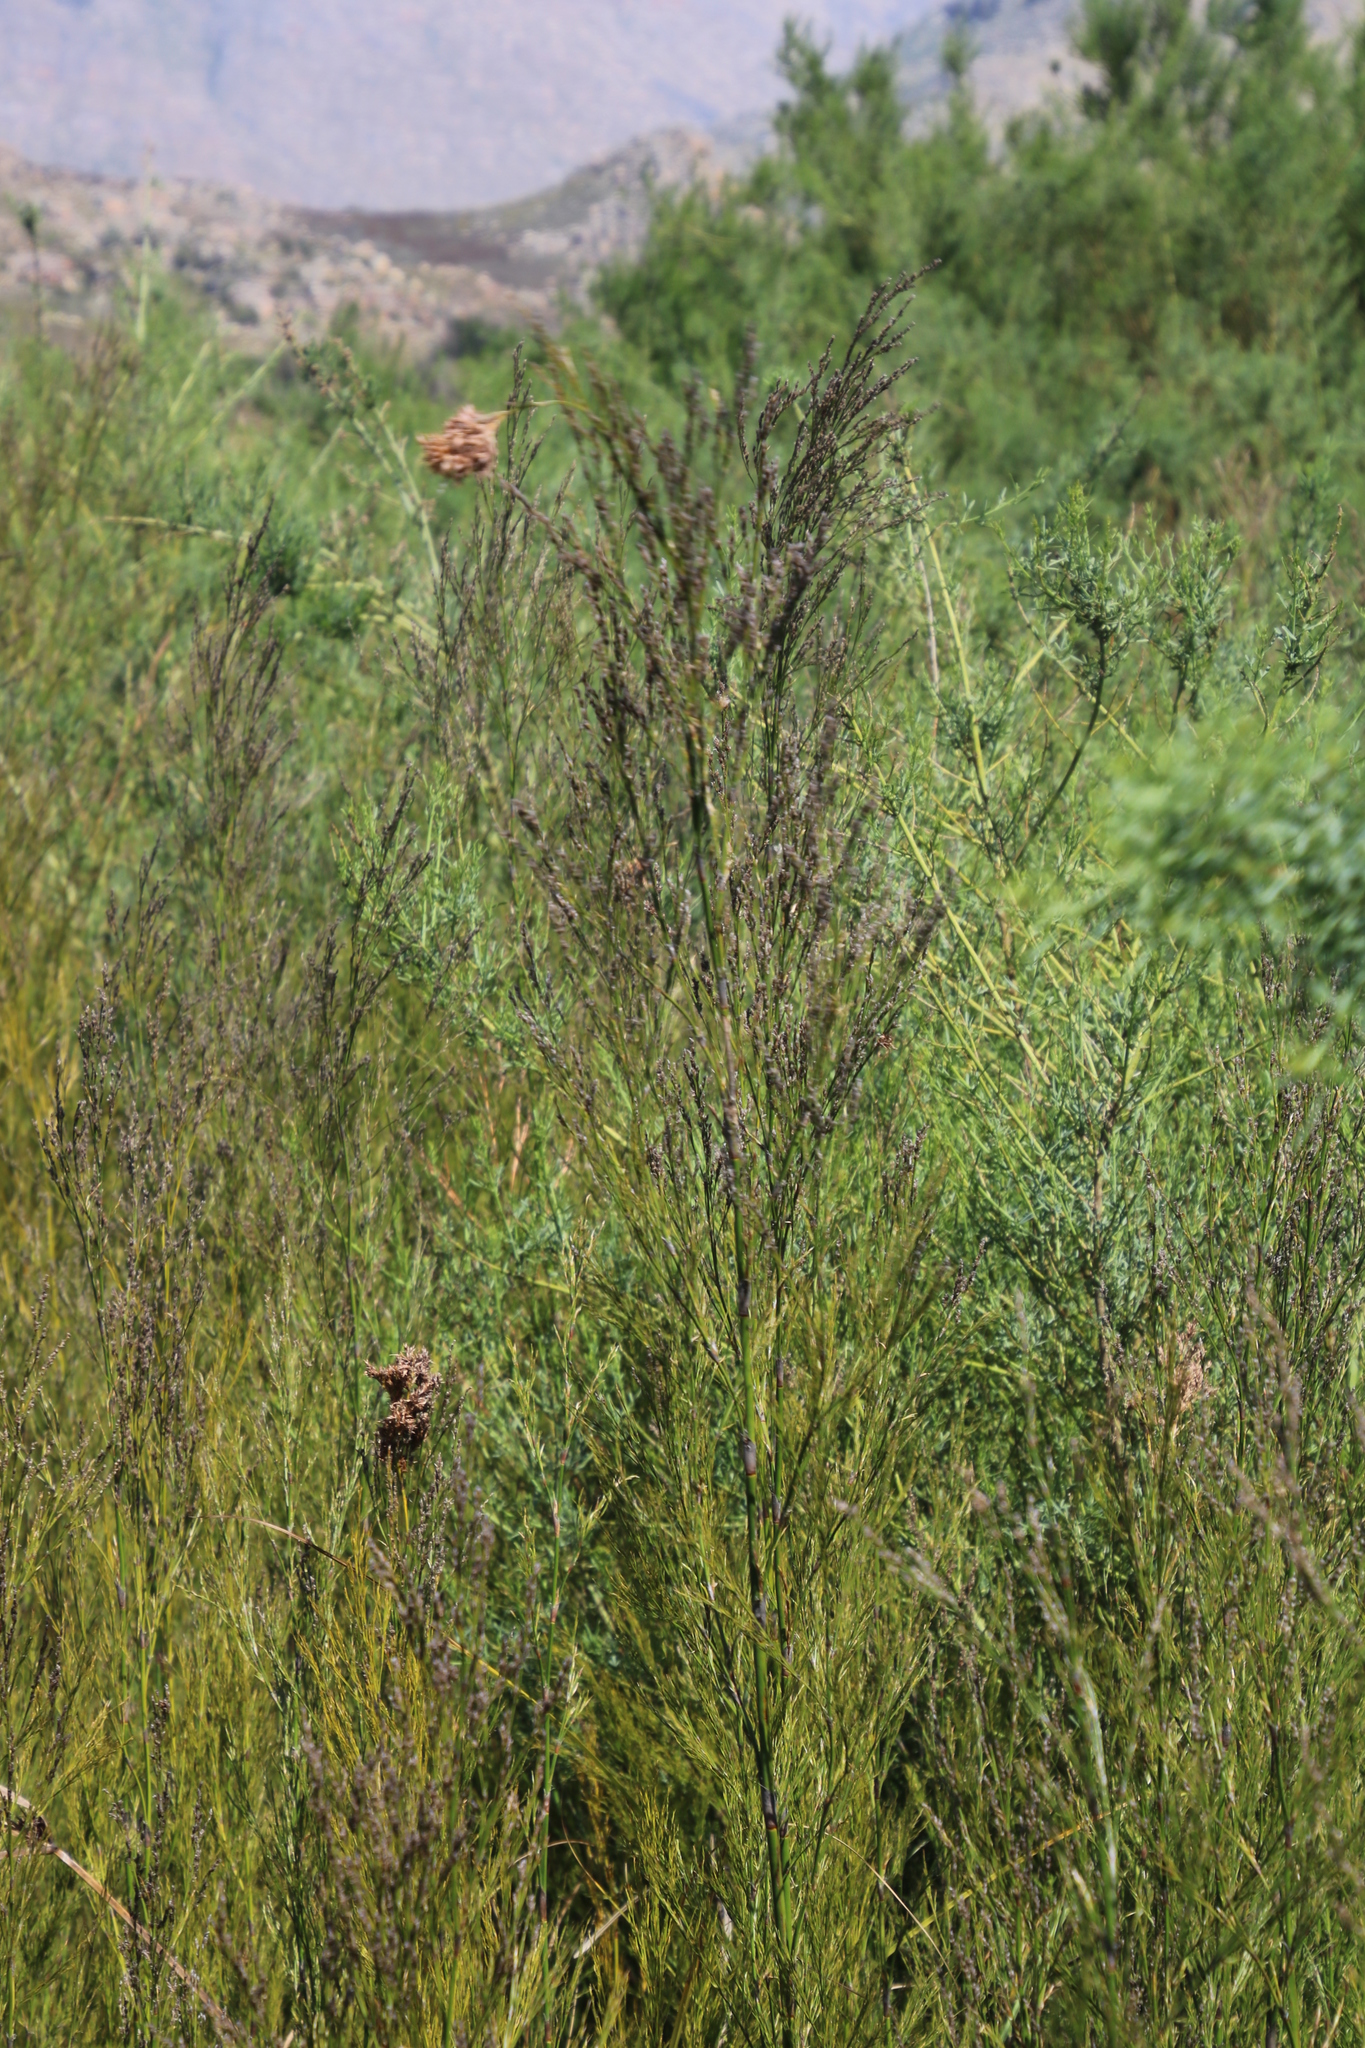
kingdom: Plantae
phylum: Tracheophyta
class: Liliopsida
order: Poales
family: Restionaceae
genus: Restio
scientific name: Restio paniculatus
